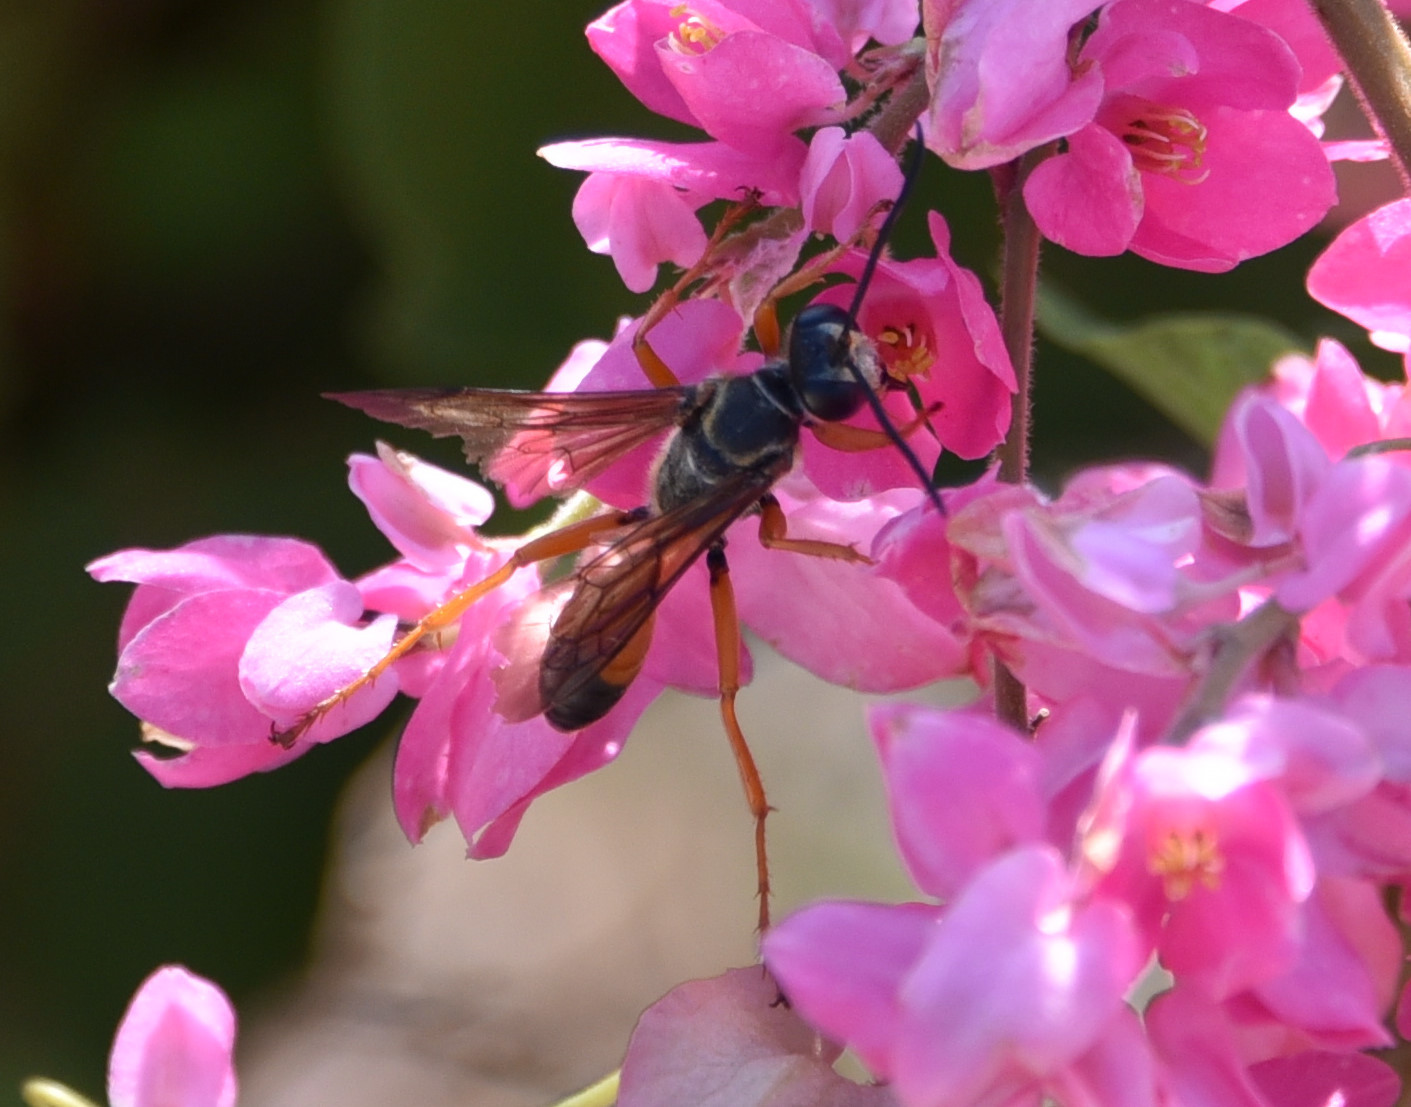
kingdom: Animalia
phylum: Arthropoda
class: Insecta
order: Hymenoptera
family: Sphecidae
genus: Sphex
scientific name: Sphex ichneumoneus
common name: Great golden digger wasp
